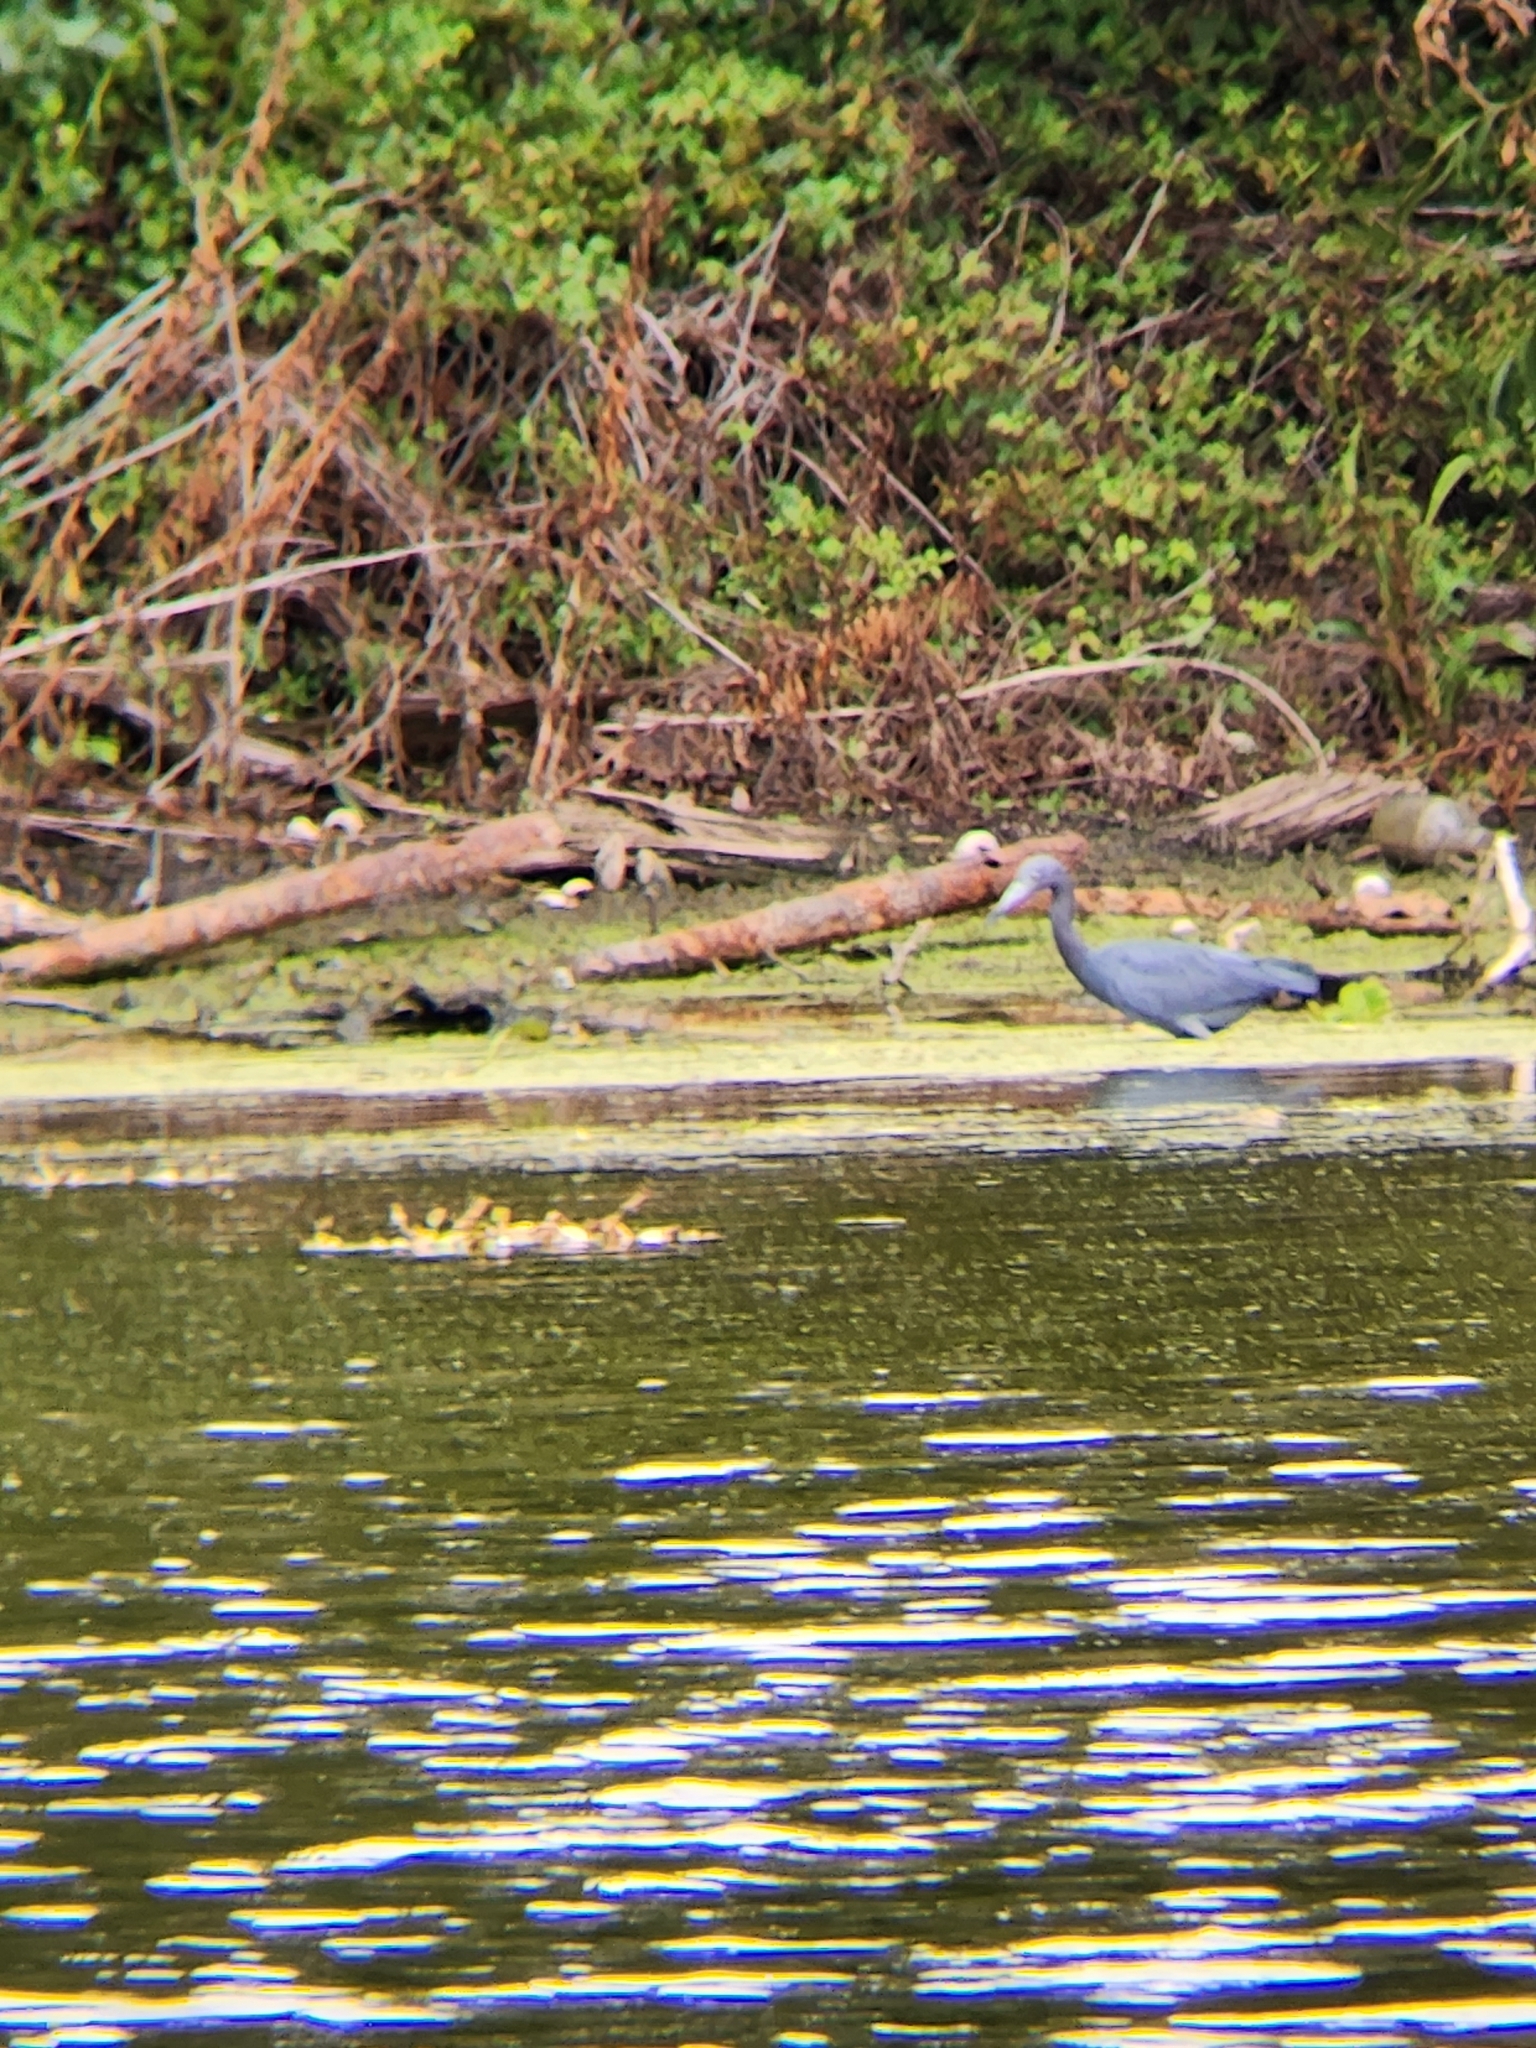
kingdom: Animalia
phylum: Chordata
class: Aves
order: Pelecaniformes
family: Ardeidae
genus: Egretta
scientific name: Egretta caerulea
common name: Little blue heron
